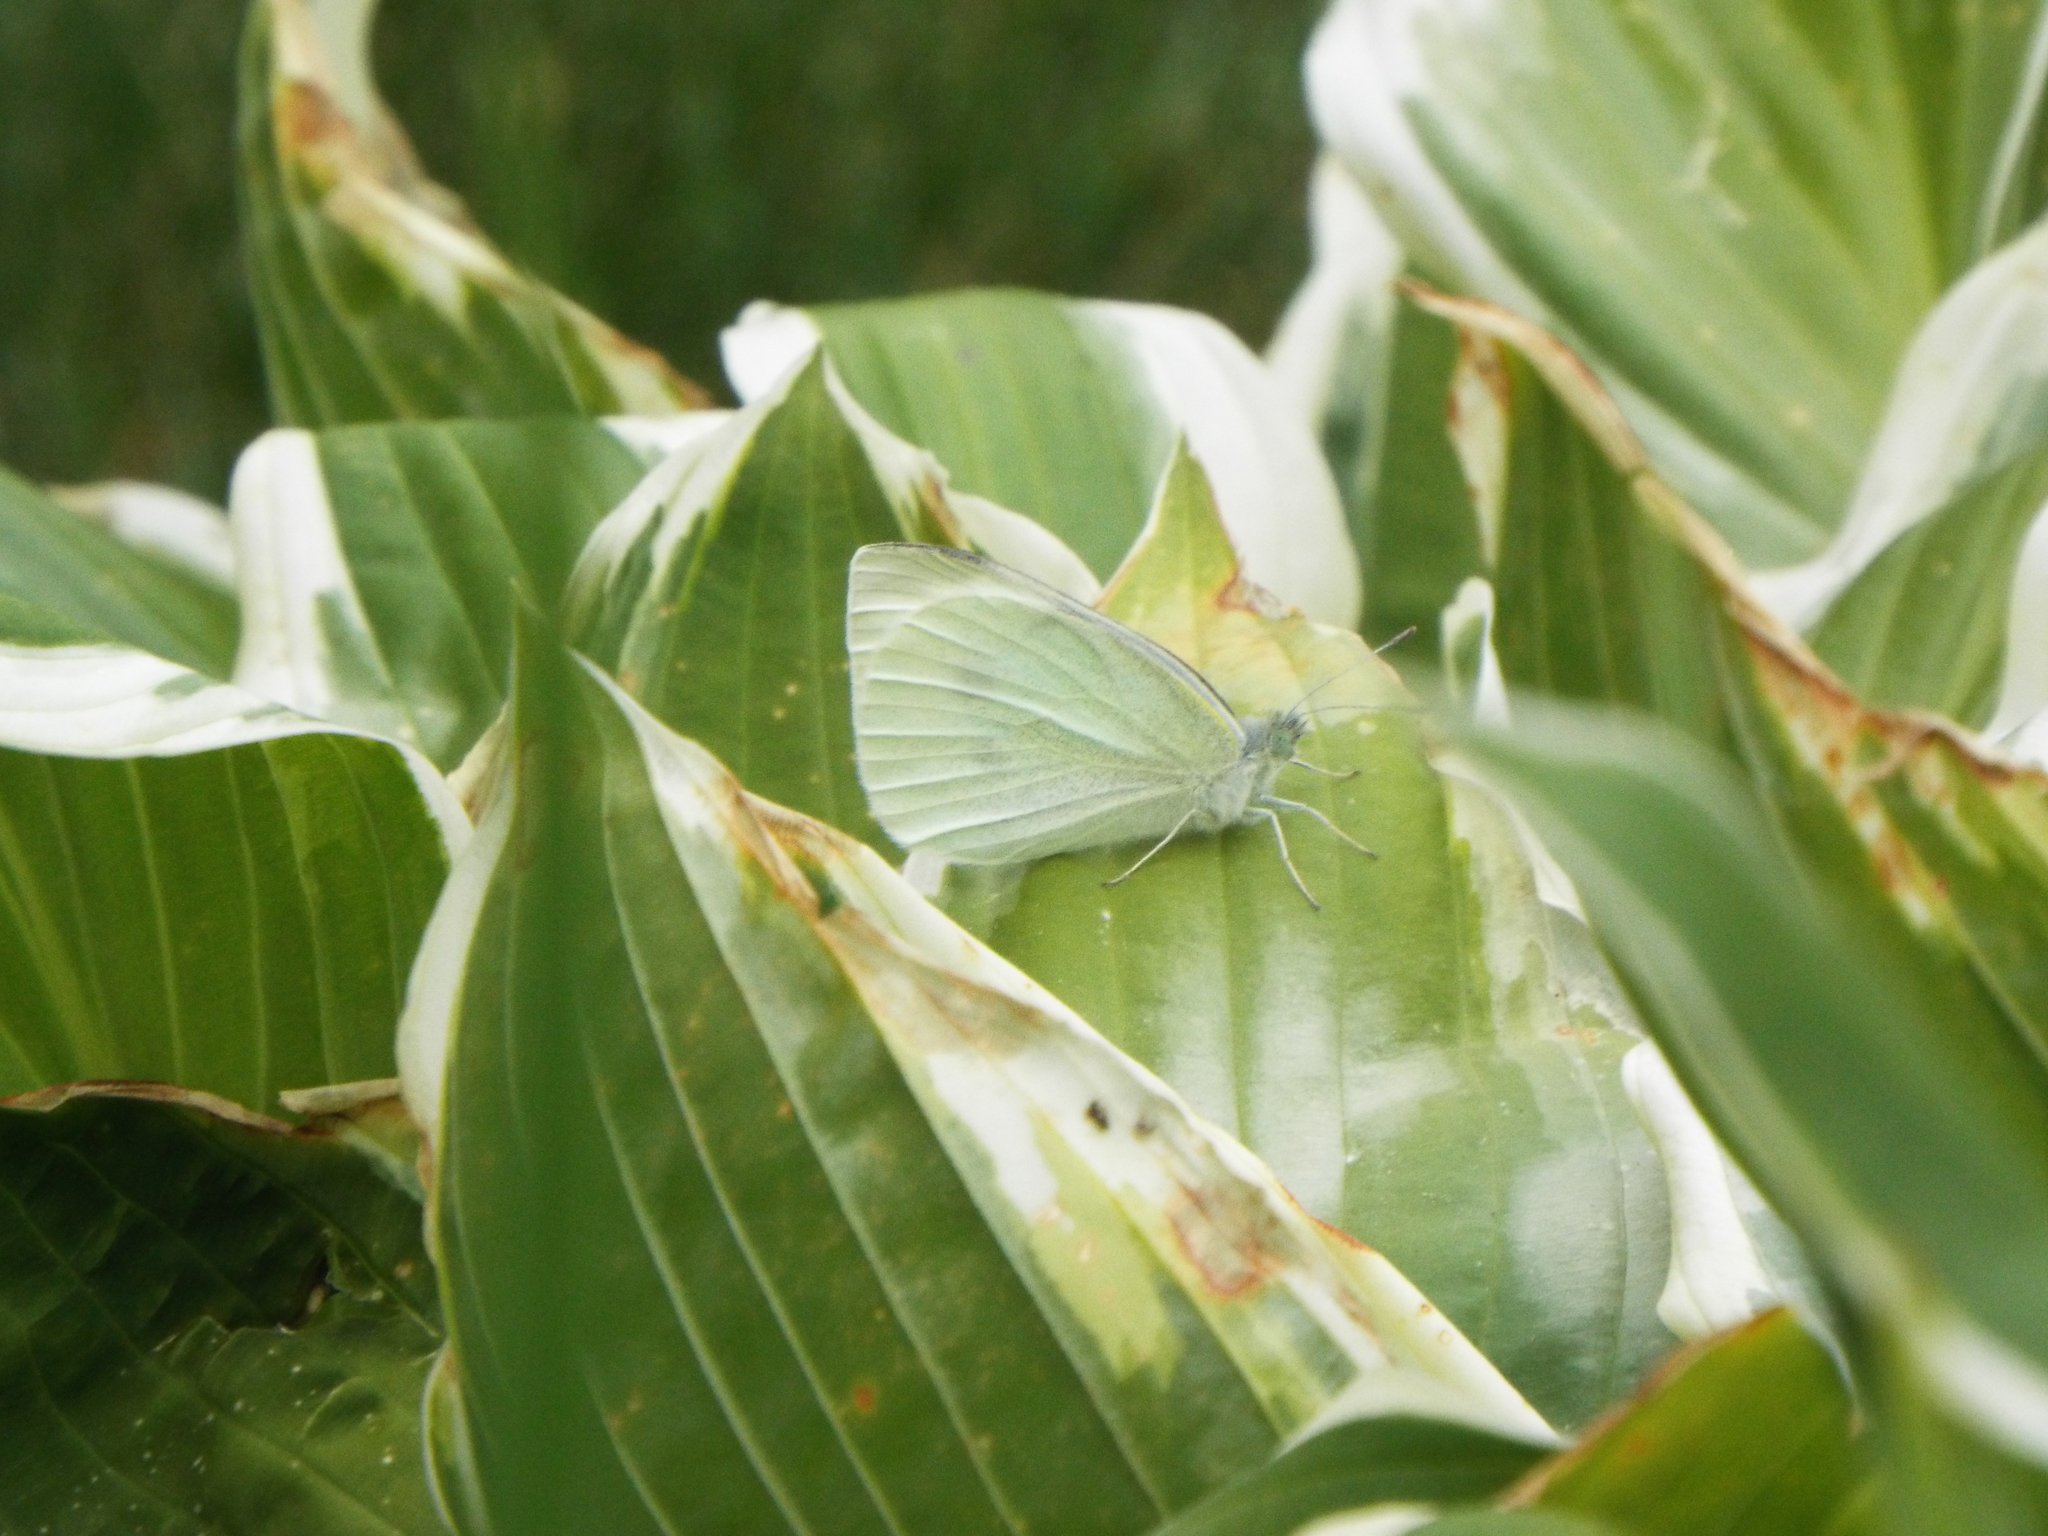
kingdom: Animalia
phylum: Arthropoda
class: Insecta
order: Lepidoptera
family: Pieridae
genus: Pieris
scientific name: Pieris rapae
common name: Small white
